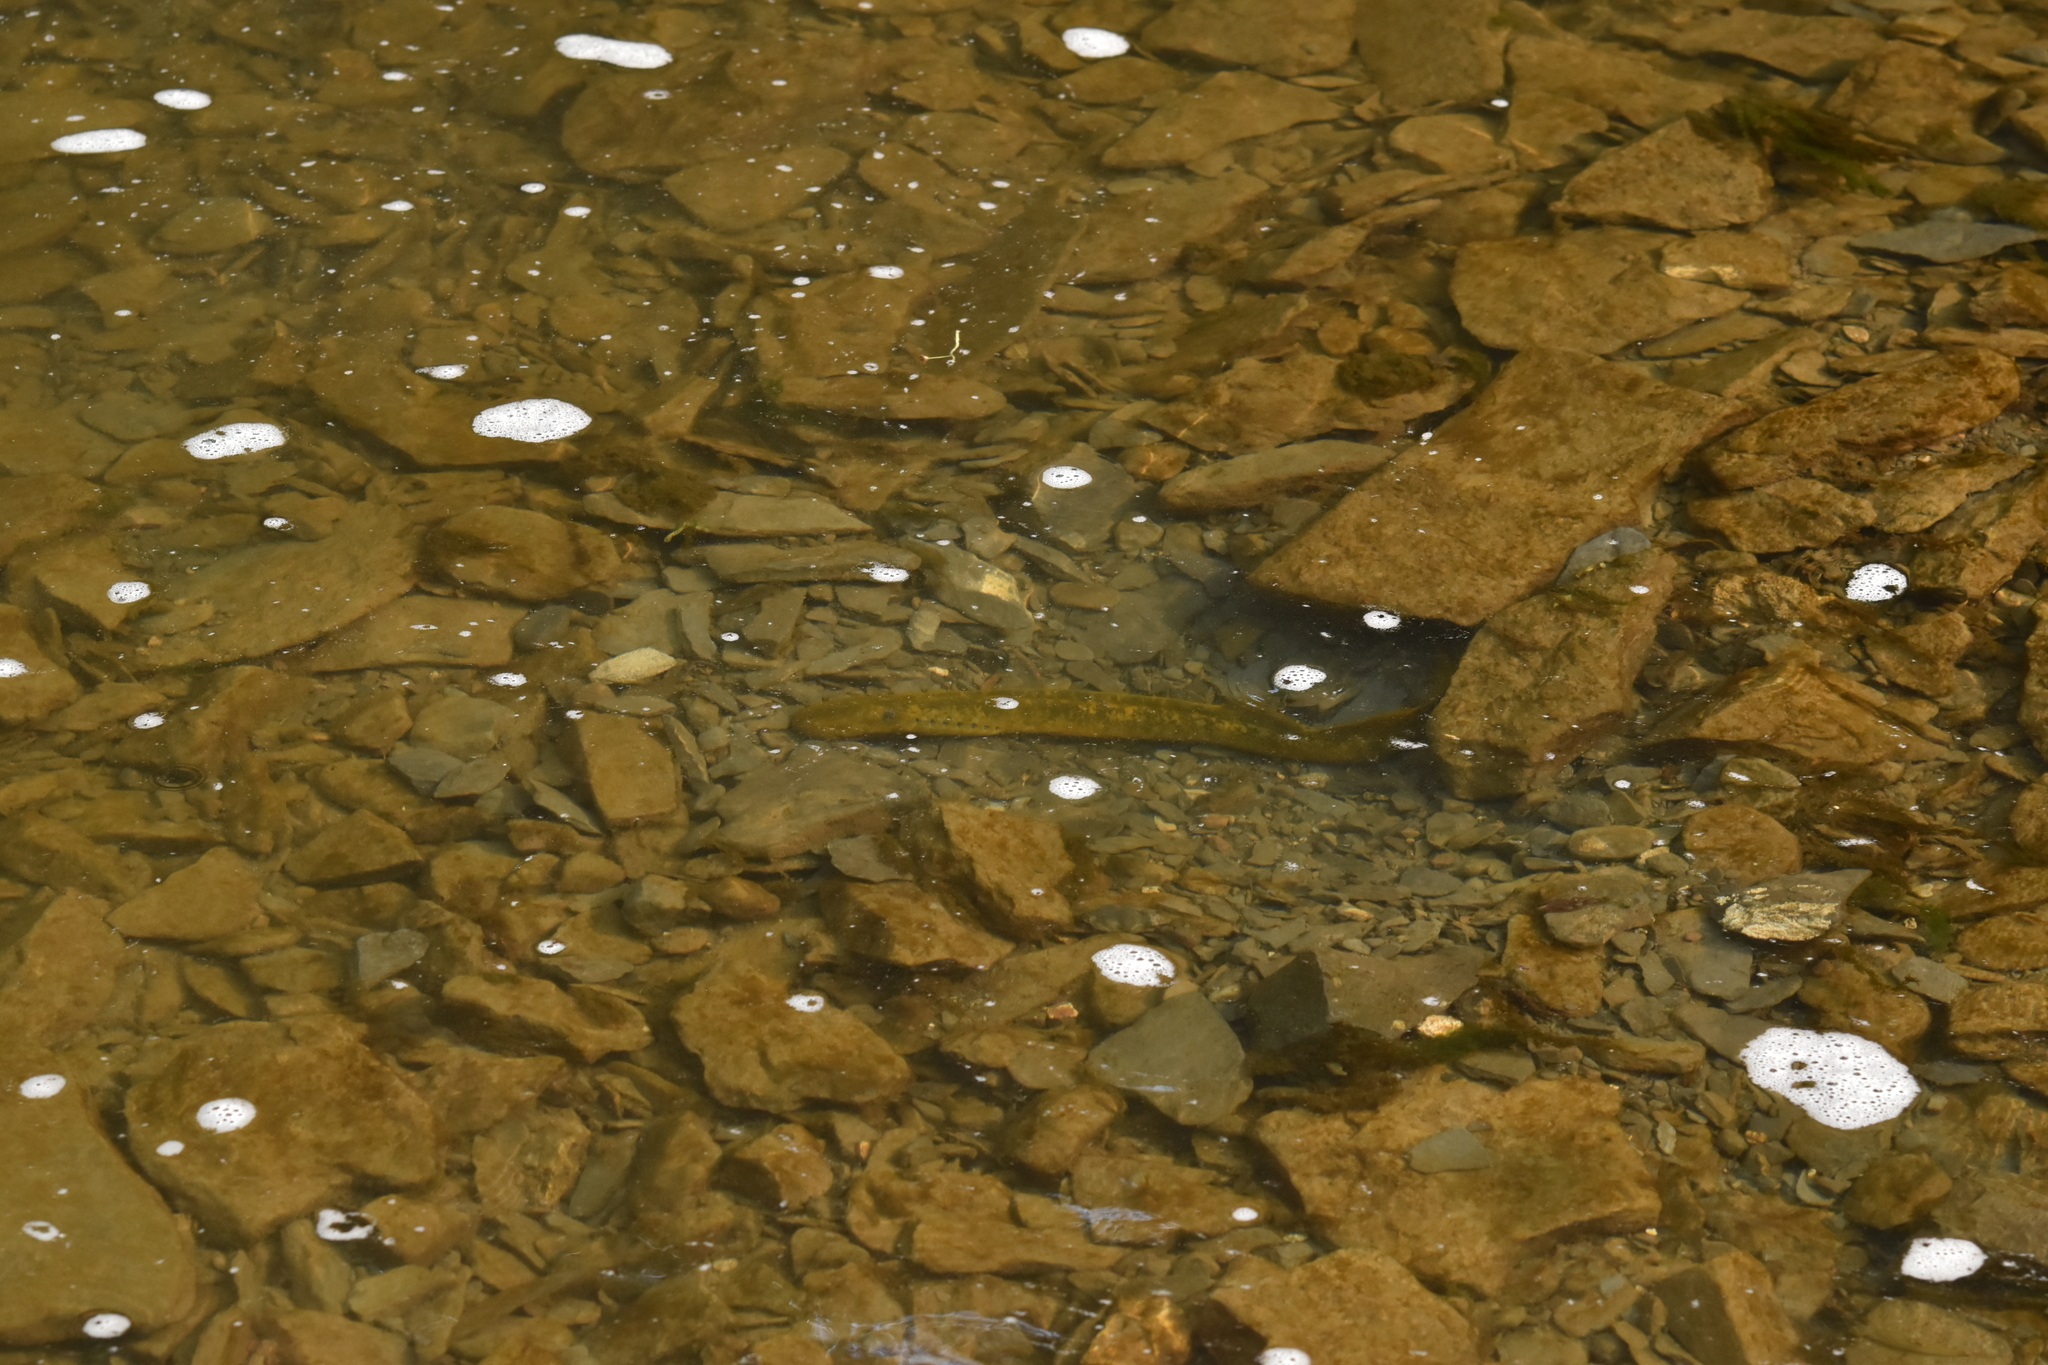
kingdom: Animalia
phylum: Chordata
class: Petromyzonti
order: Petromyzontiformes
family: Petromyzontidae
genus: Petromyzon
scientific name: Petromyzon marinus
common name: Sea lamprey
